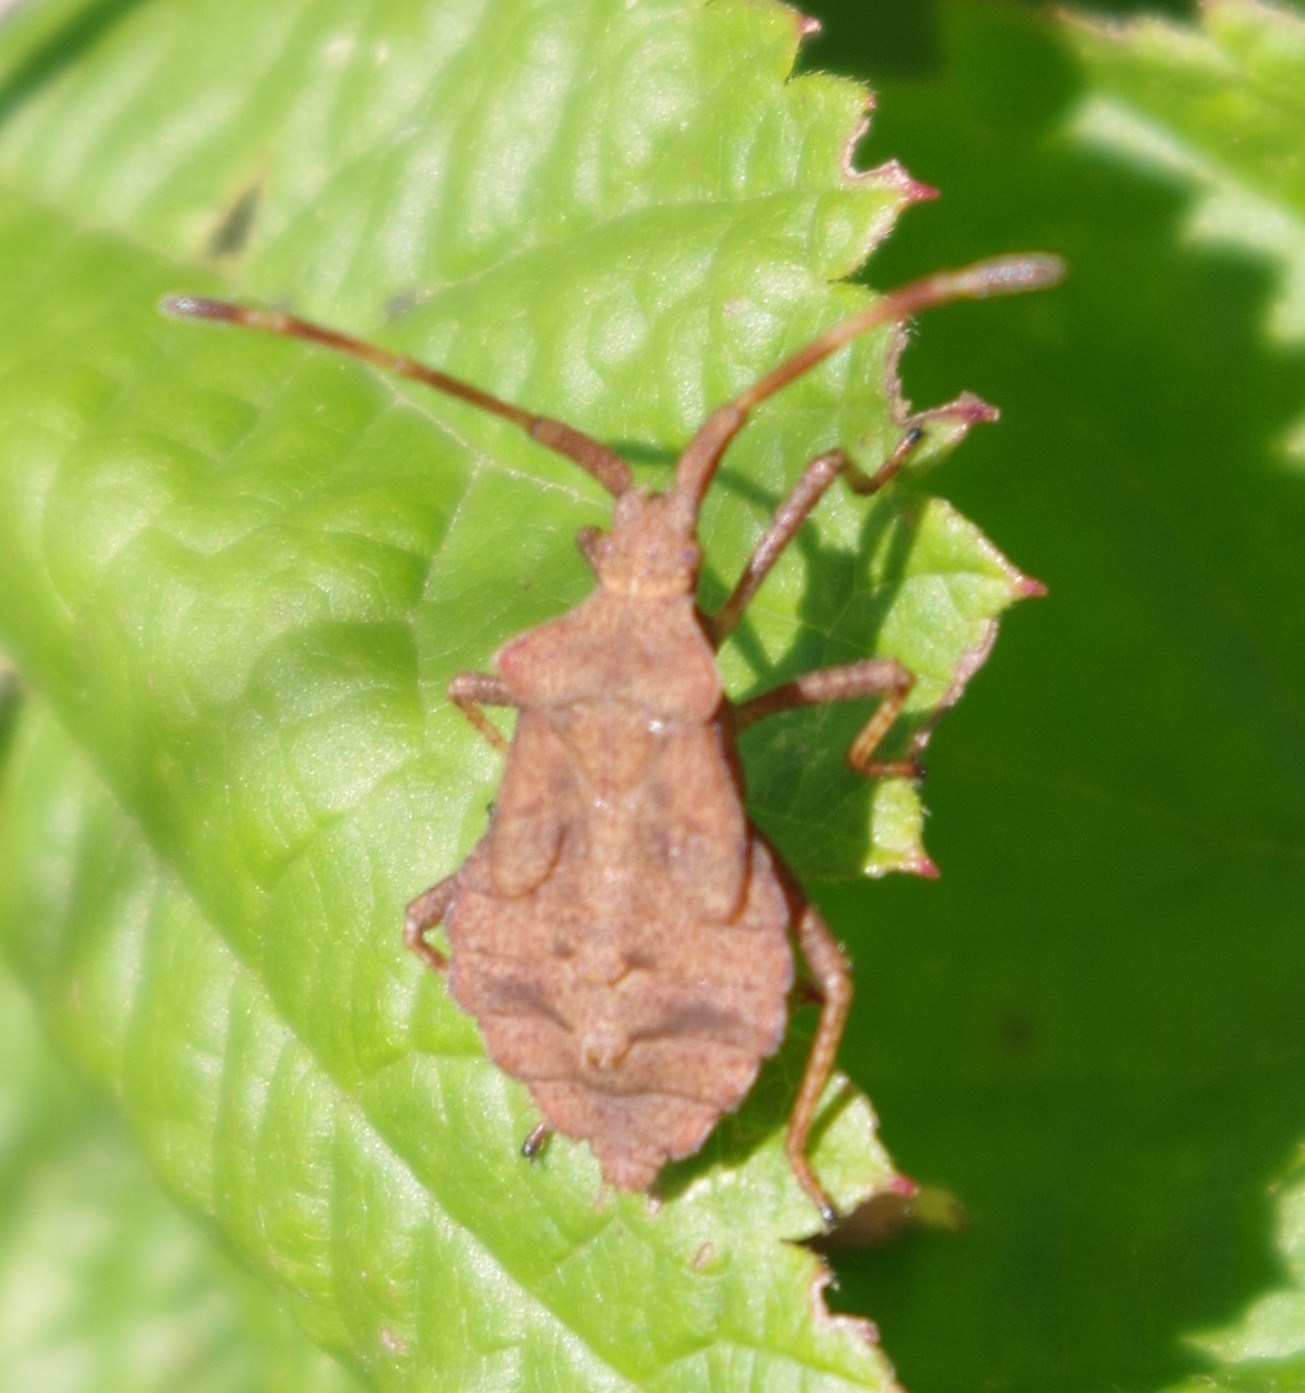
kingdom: Animalia
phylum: Arthropoda
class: Insecta
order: Hemiptera
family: Coreidae
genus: Coreus
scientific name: Coreus marginatus
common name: Dock bug
